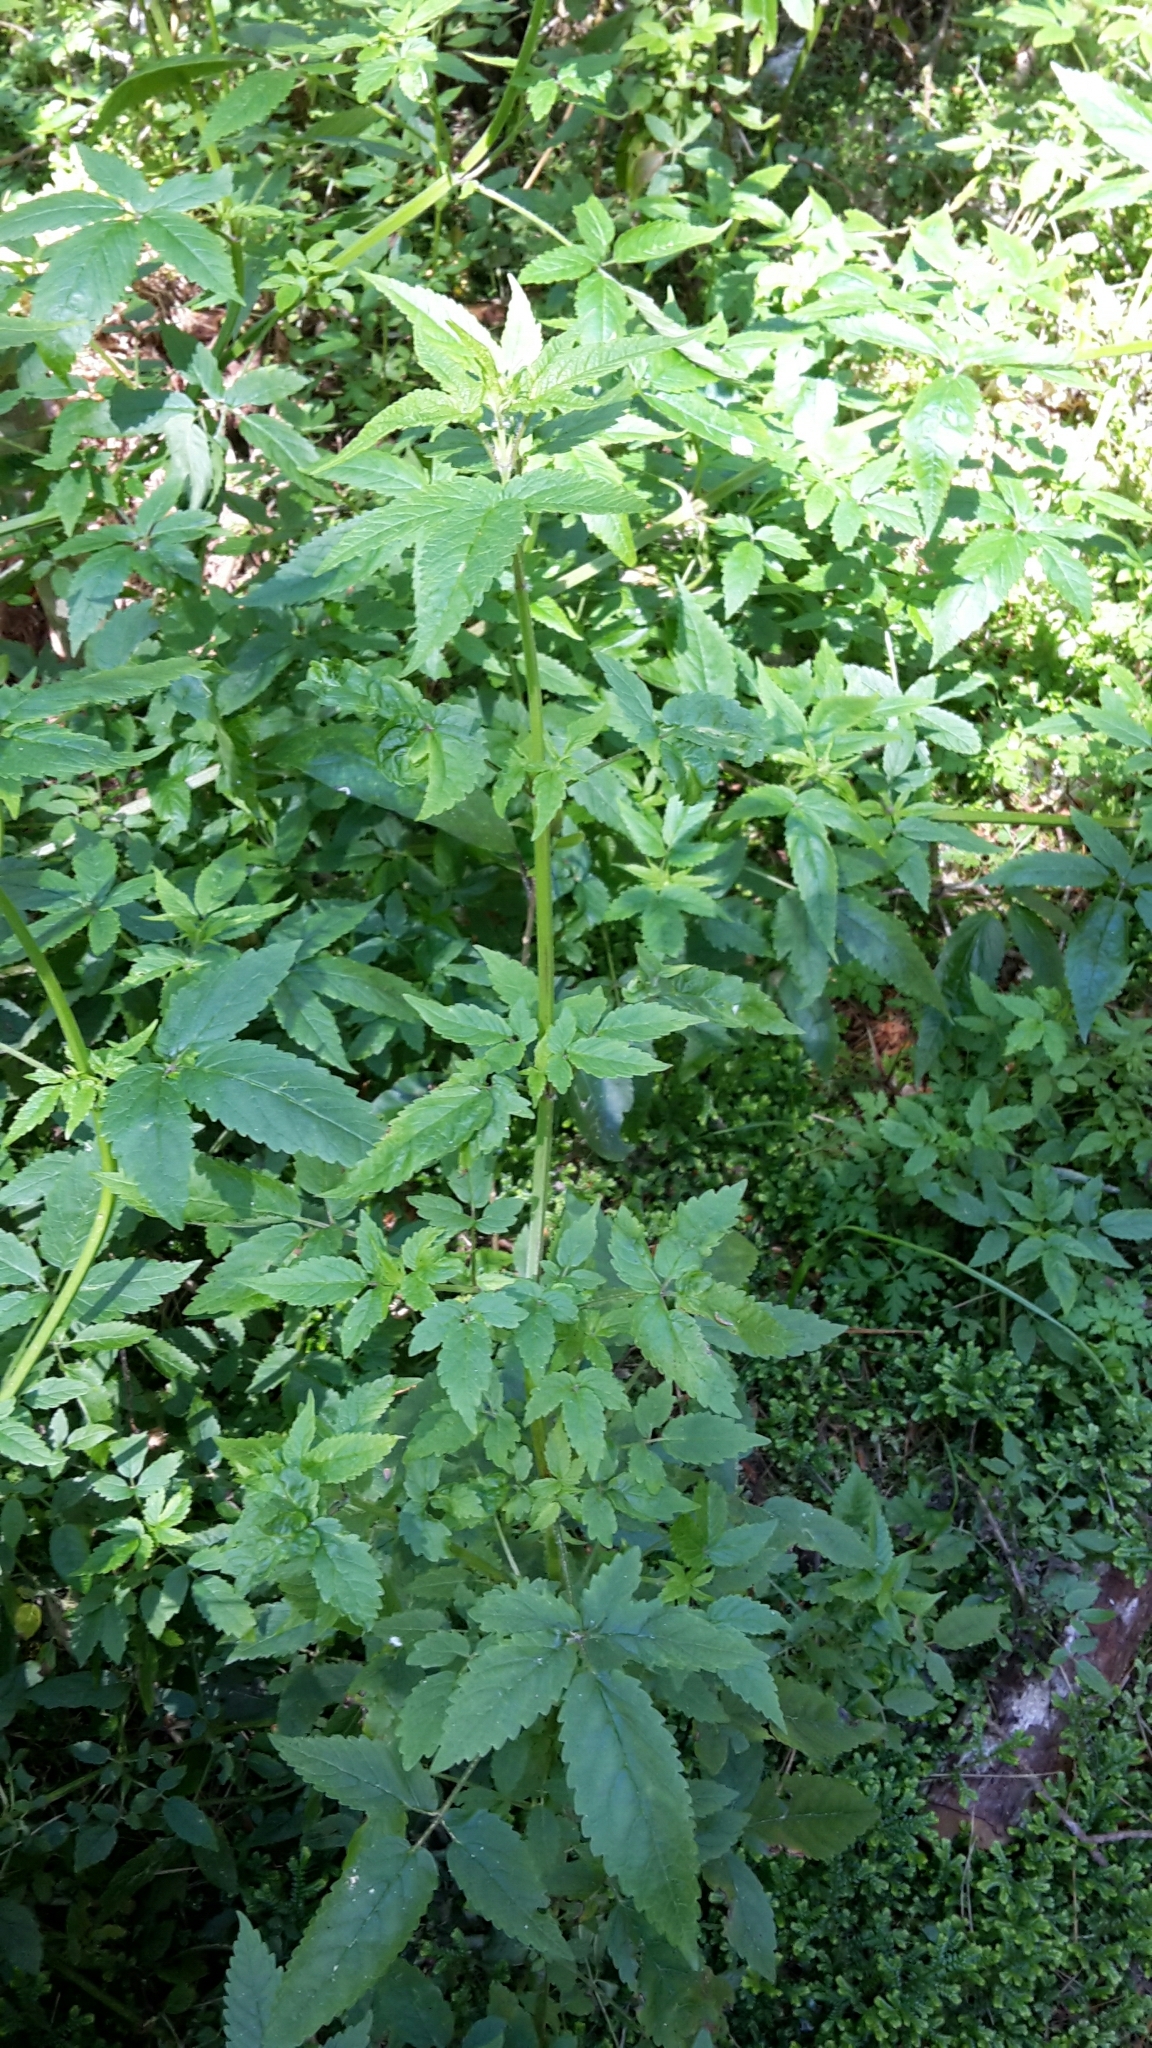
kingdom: Plantae
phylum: Tracheophyta
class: Magnoliopsida
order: Lamiales
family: Lamiaceae
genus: Cedronella
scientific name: Cedronella canariensis
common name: Canary islands balm
